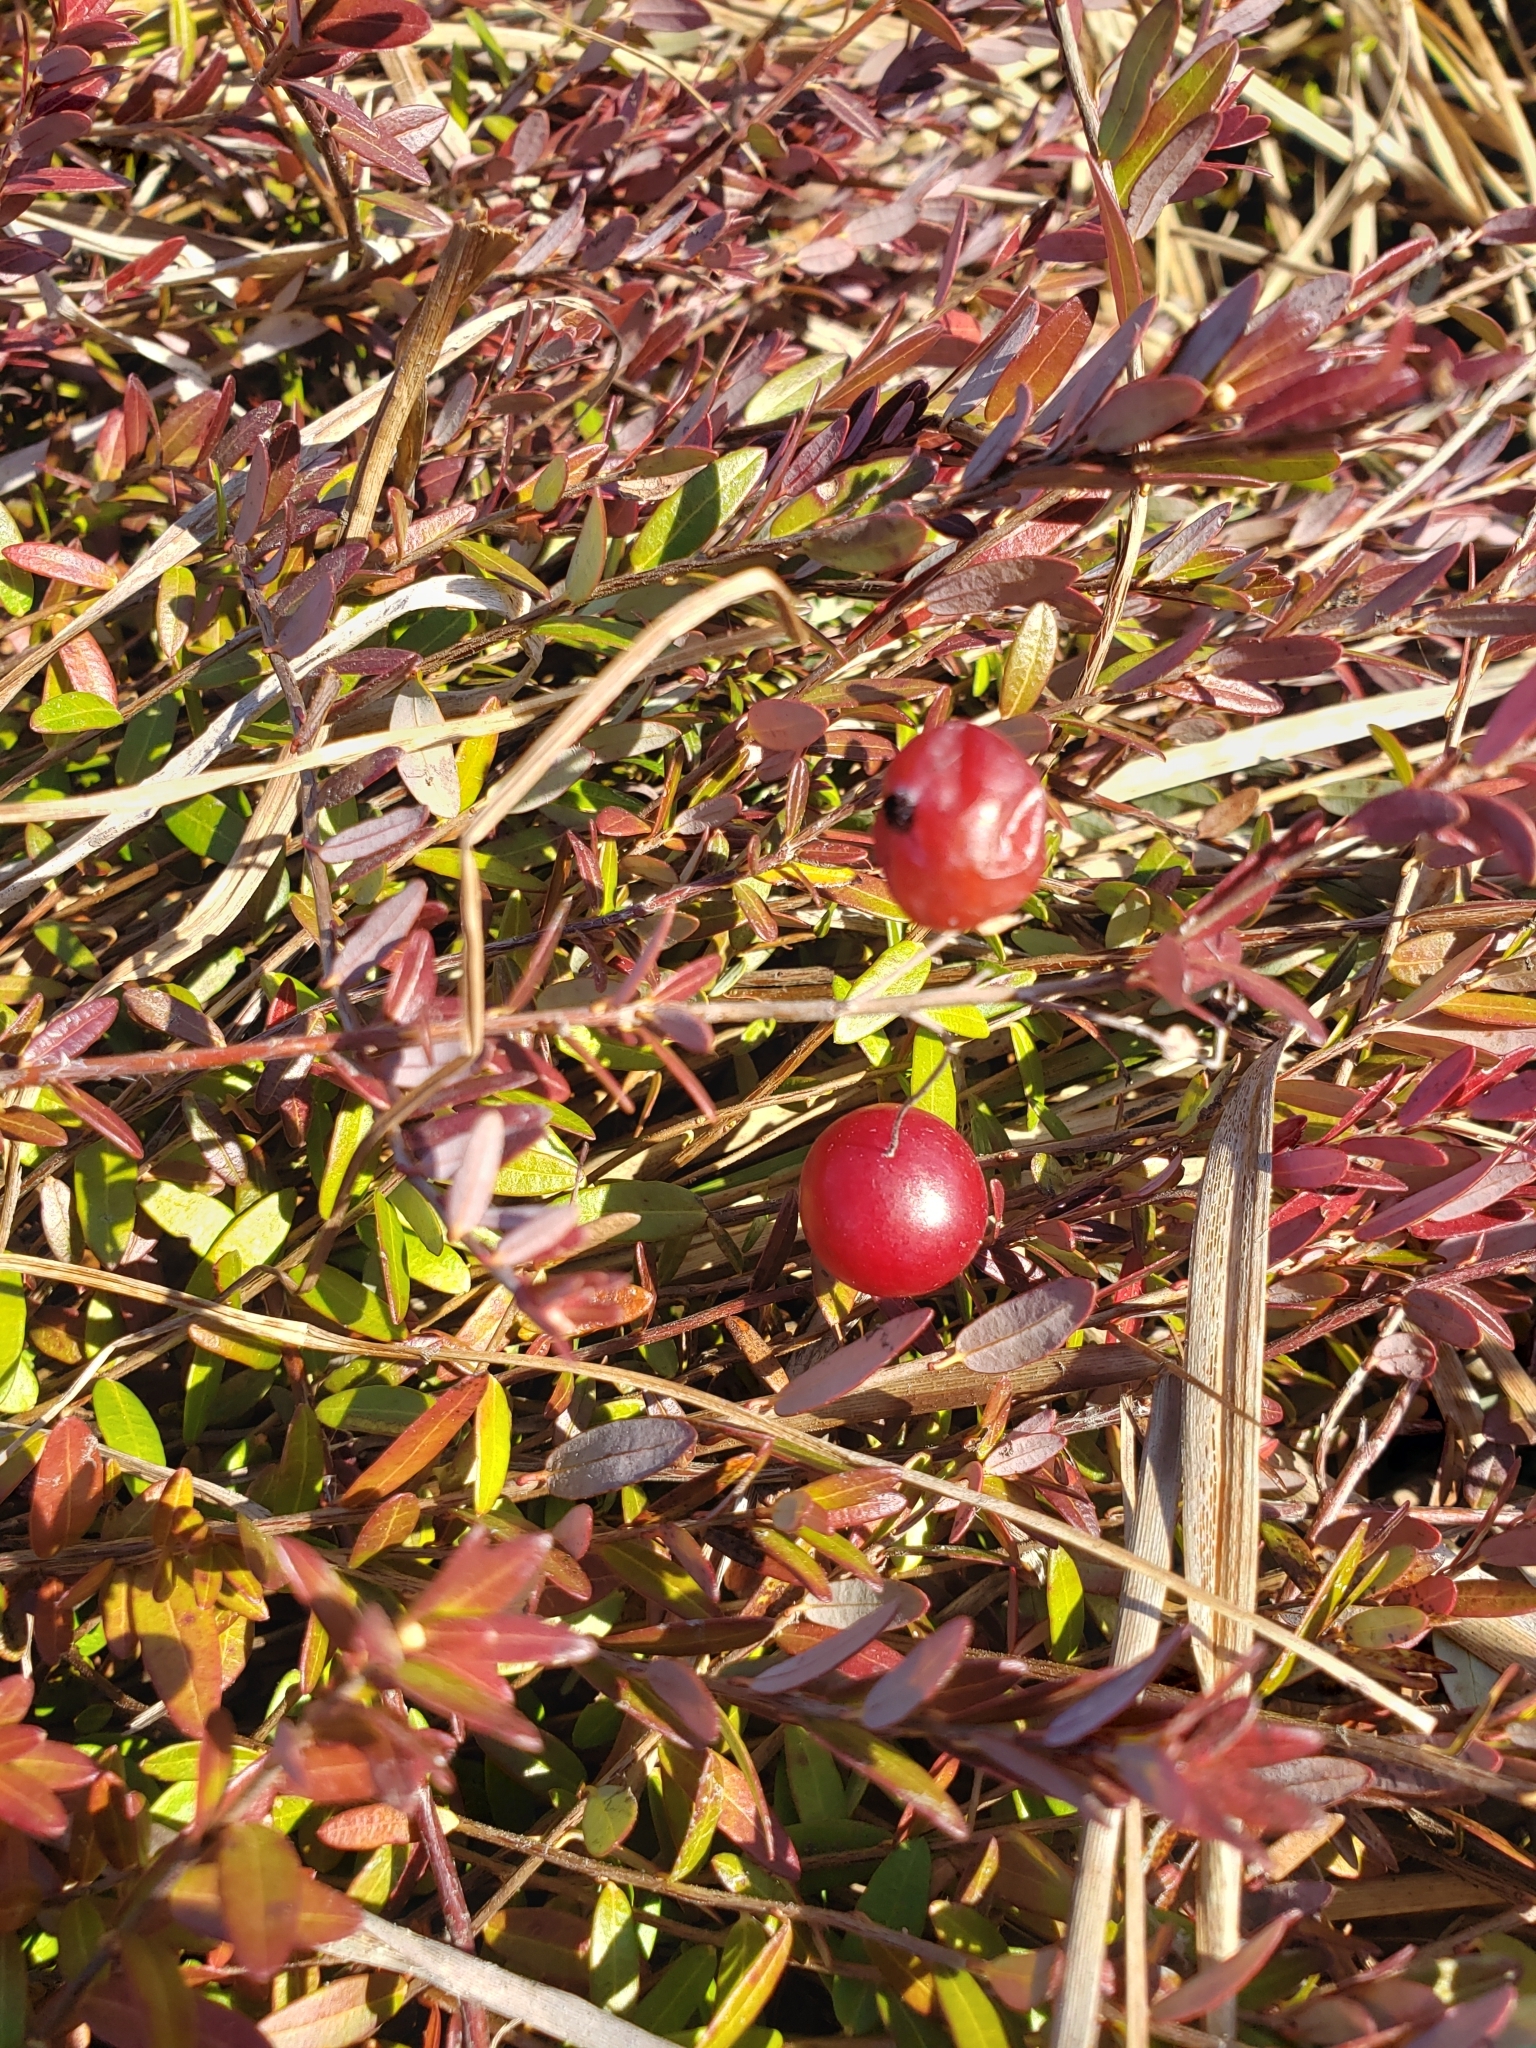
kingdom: Plantae
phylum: Tracheophyta
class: Magnoliopsida
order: Ericales
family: Ericaceae
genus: Vaccinium
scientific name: Vaccinium macrocarpon
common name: American cranberry
